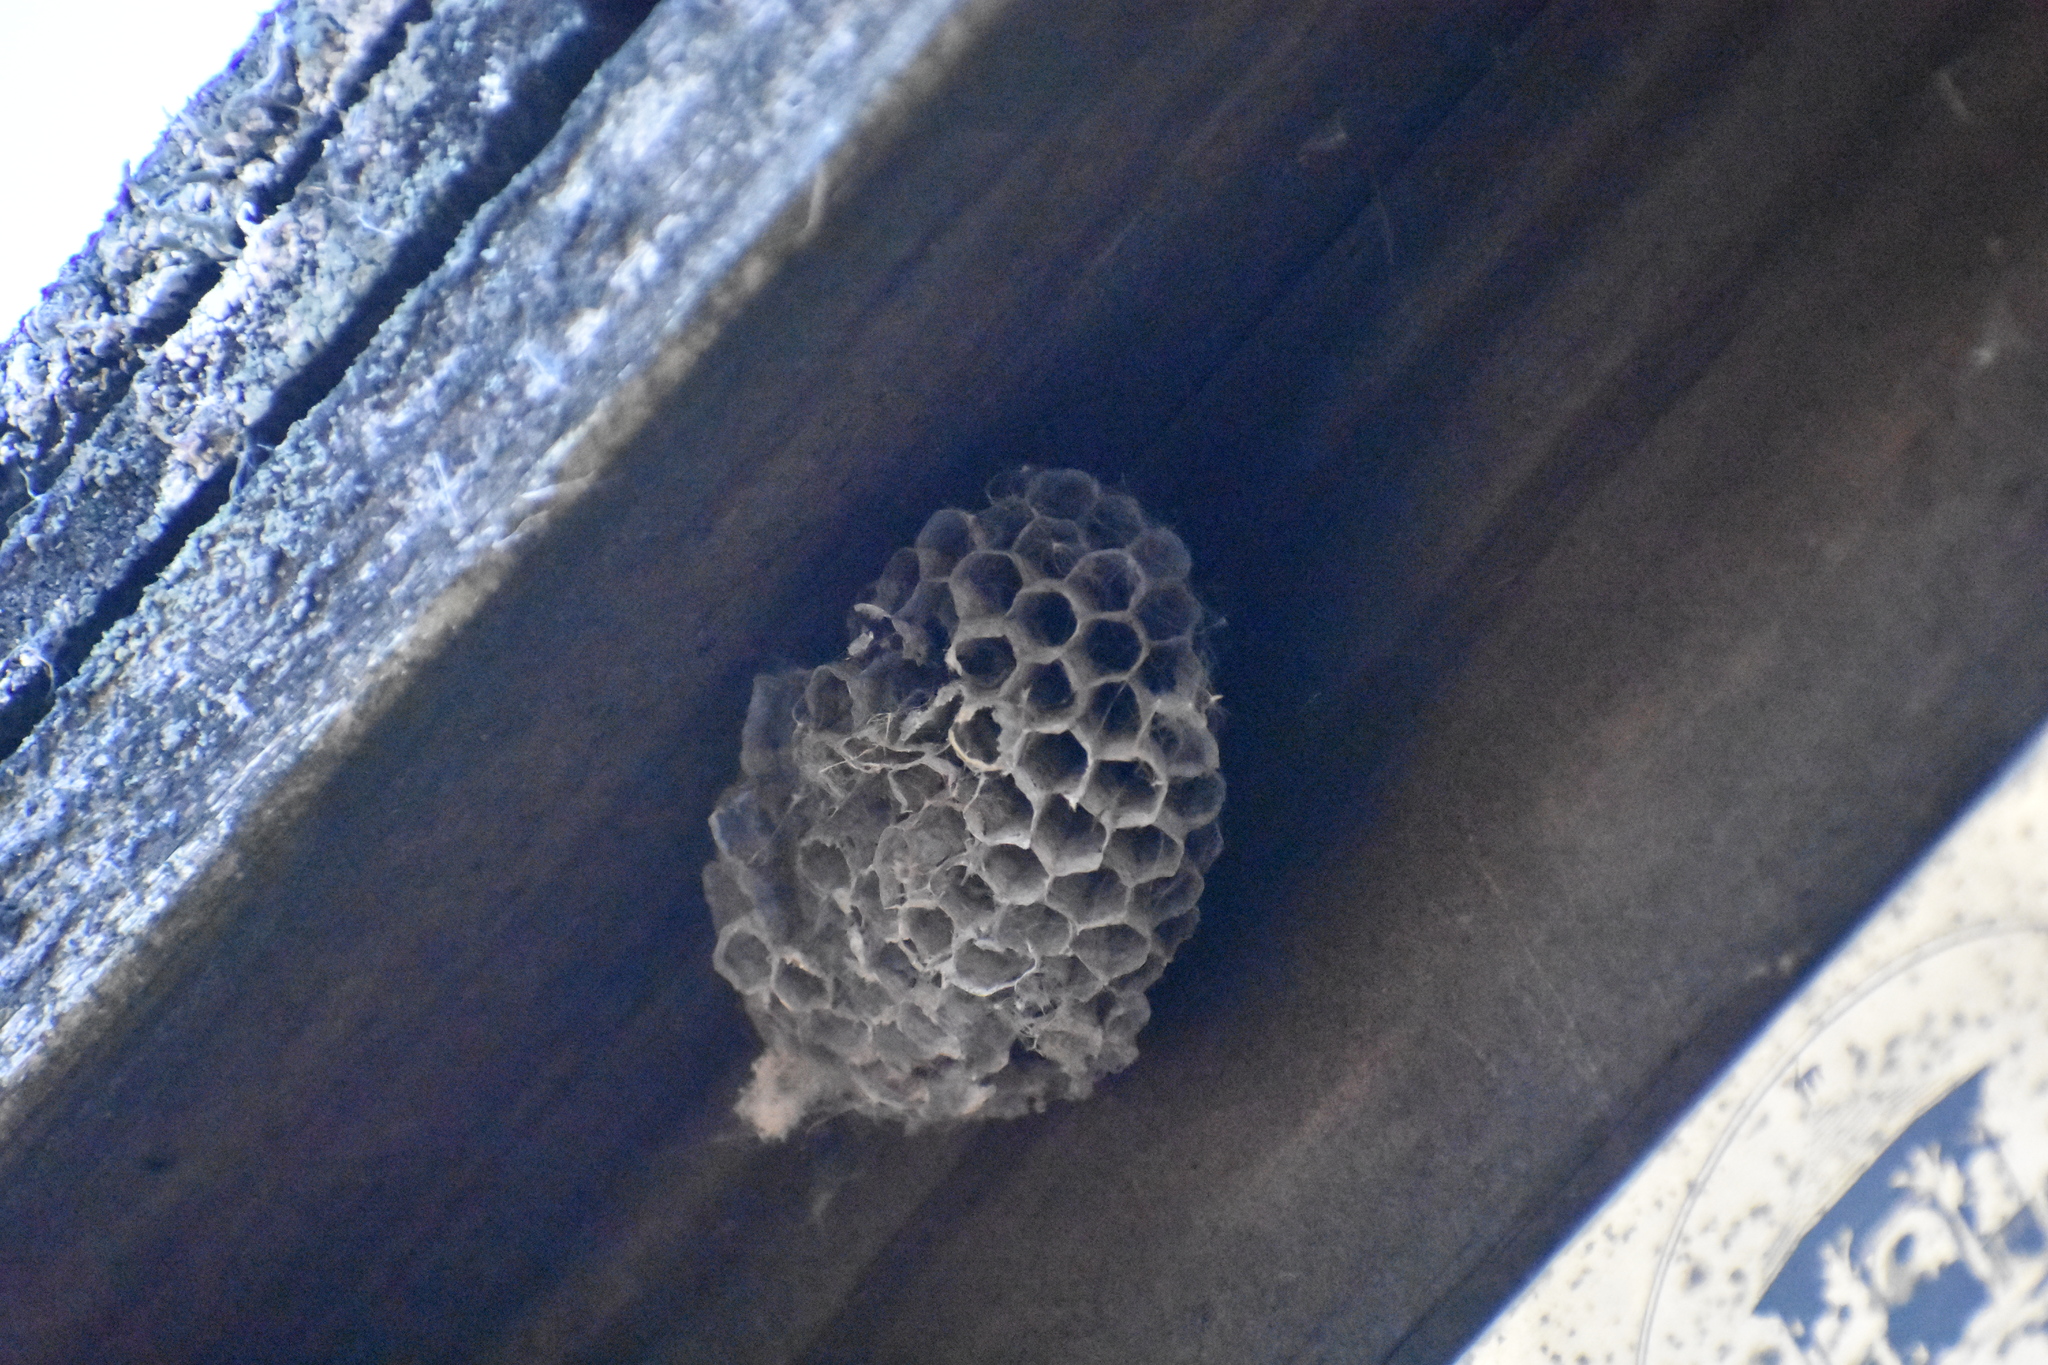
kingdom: Animalia
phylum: Arthropoda
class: Insecta
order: Hymenoptera
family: Eumenidae
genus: Polistes
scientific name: Polistes
